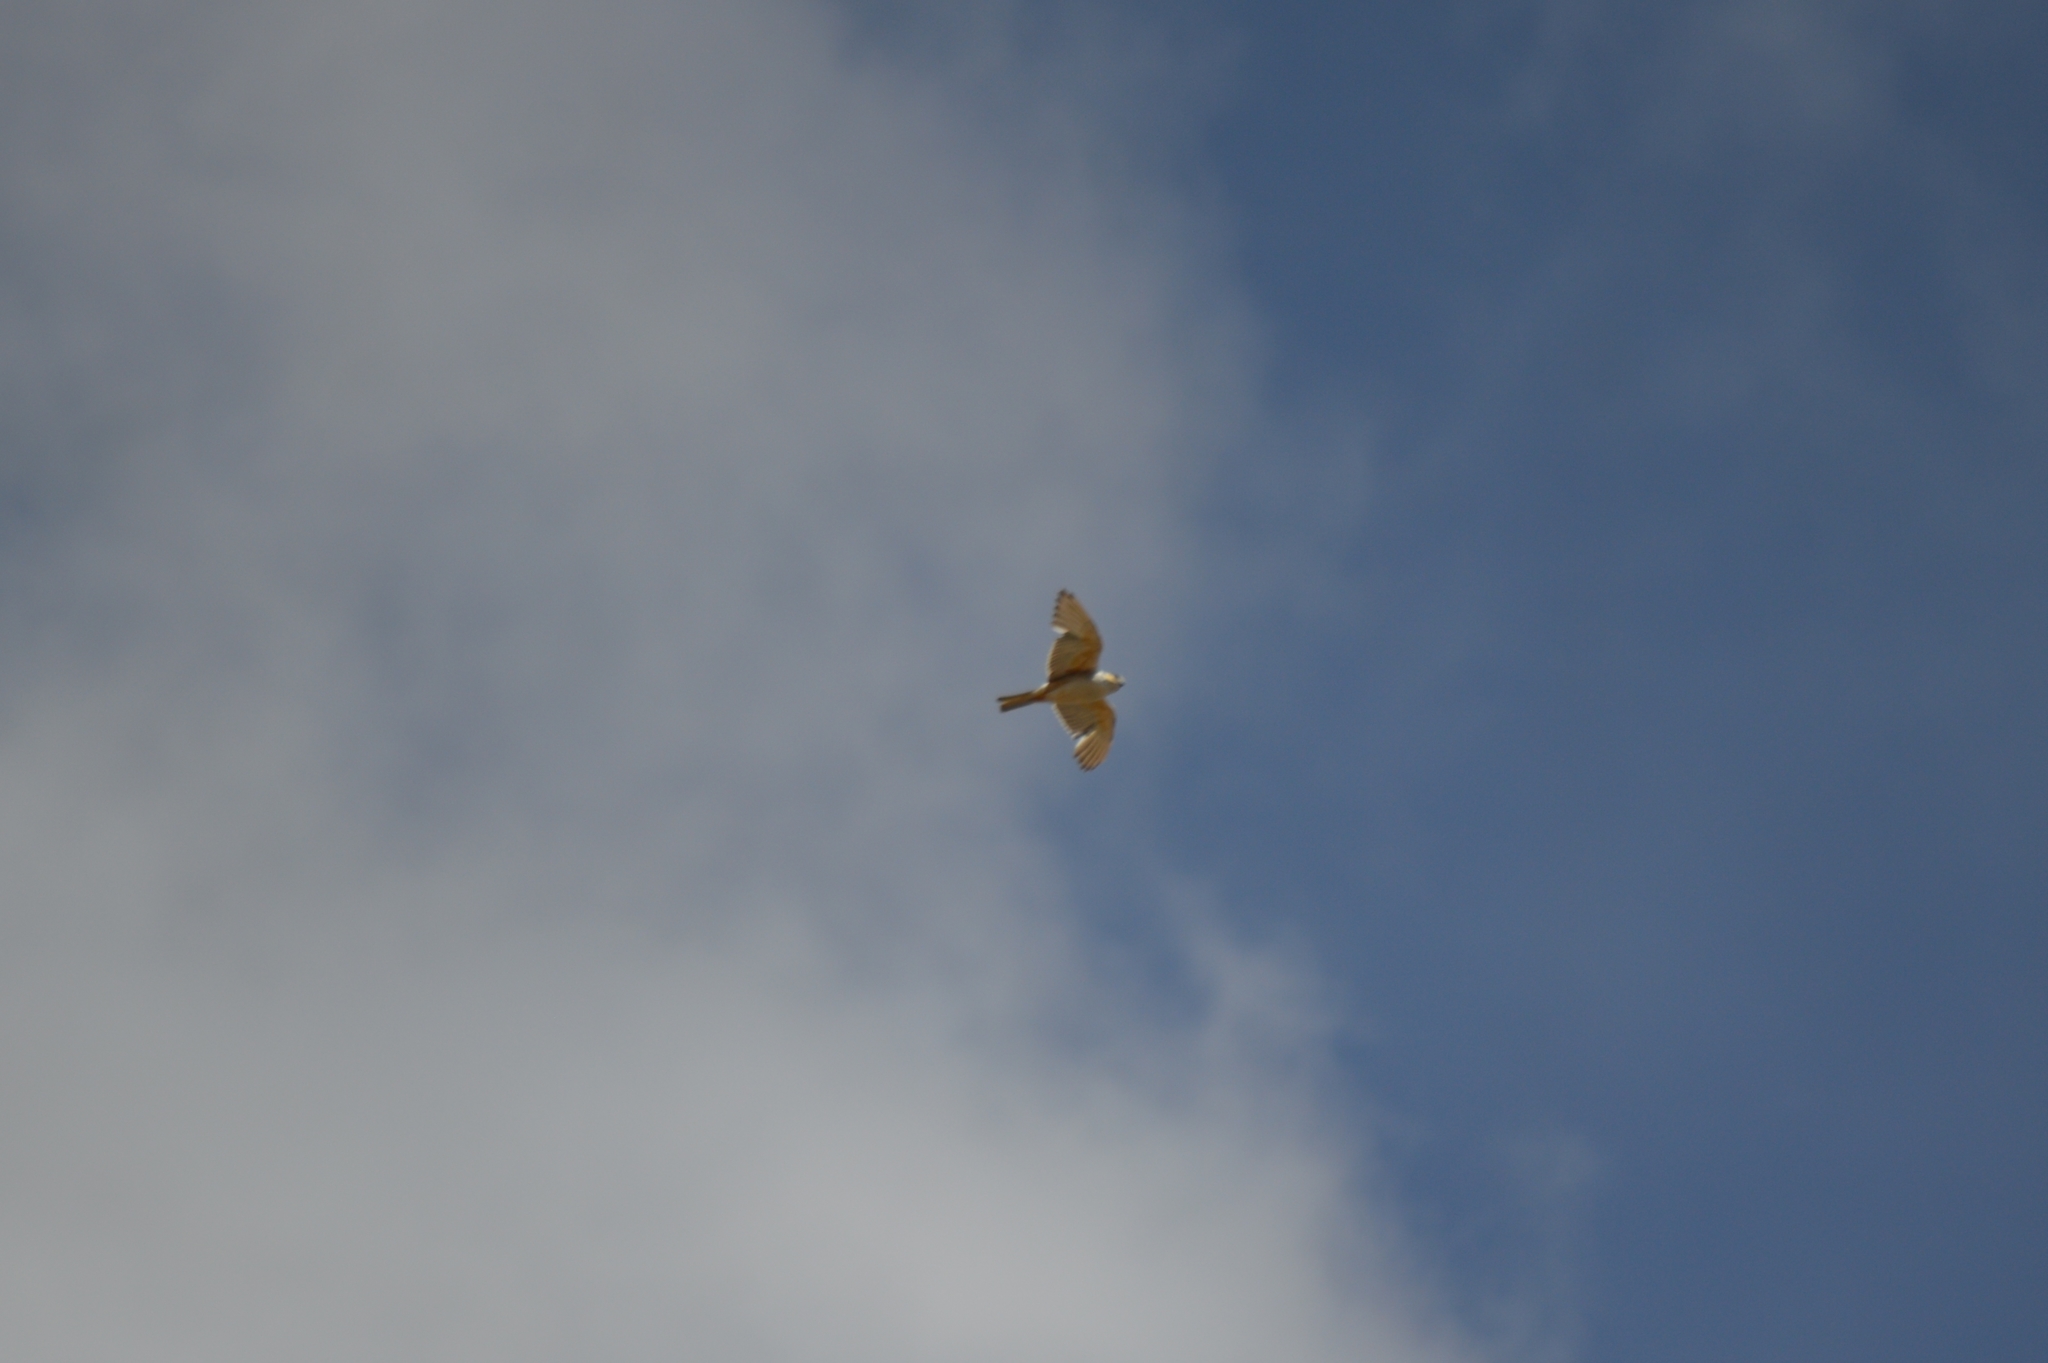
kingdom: Animalia
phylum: Chordata
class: Aves
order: Accipitriformes
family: Accipitridae
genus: Gampsonyx
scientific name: Gampsonyx swainsonii
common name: Pearl kite
